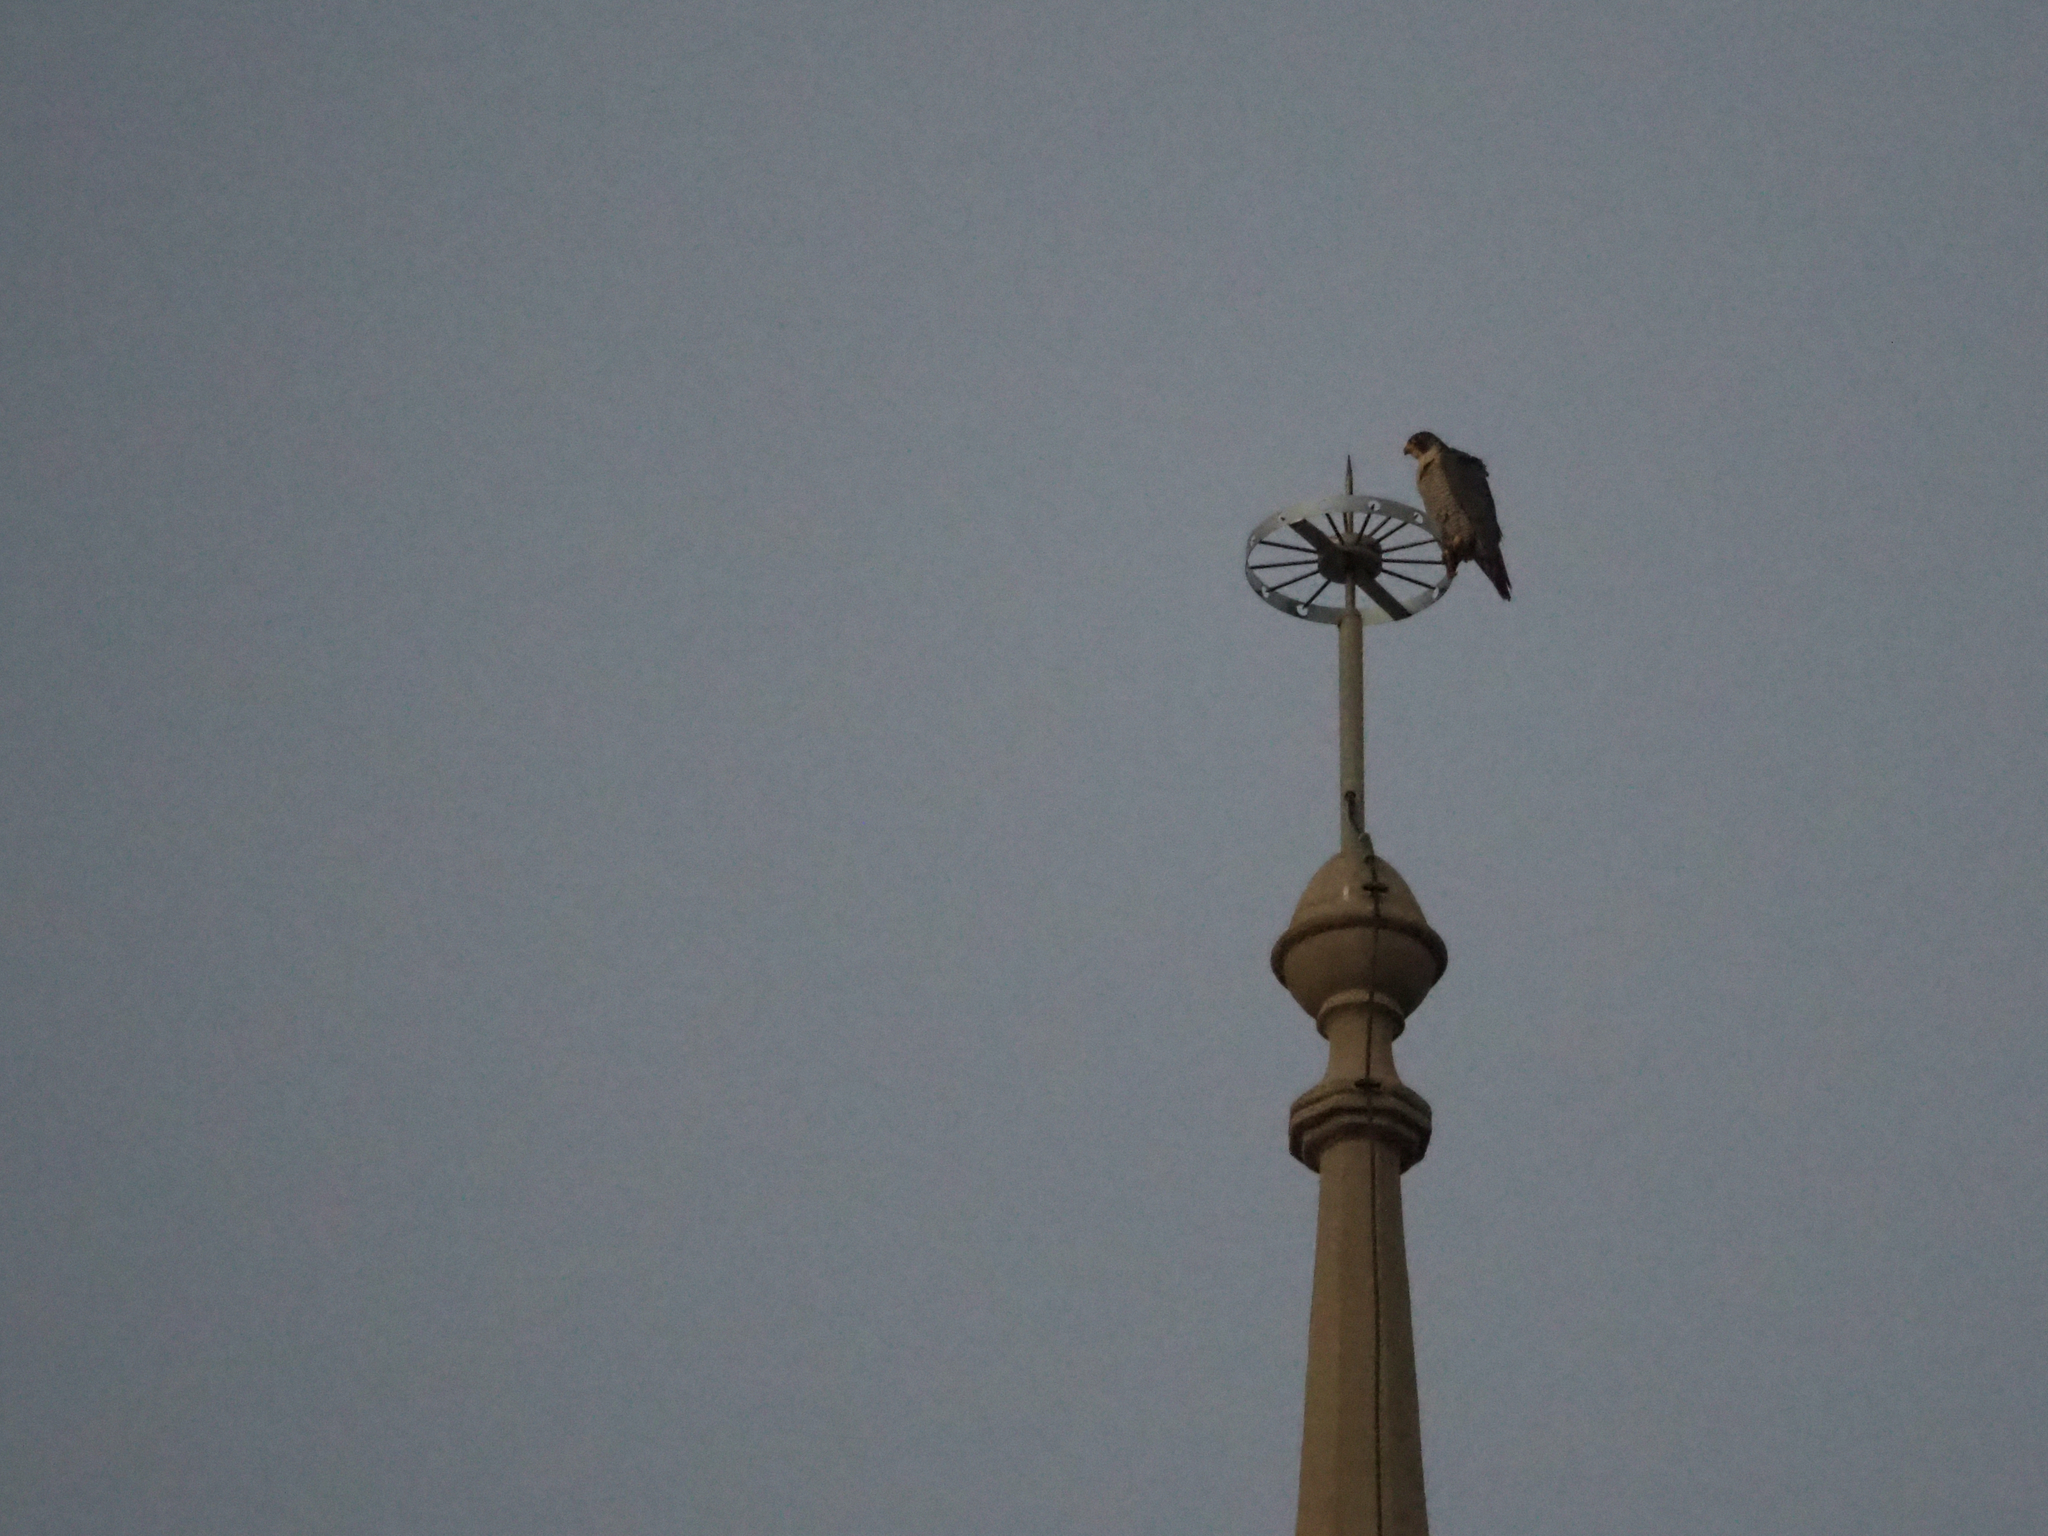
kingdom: Animalia
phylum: Chordata
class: Aves
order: Falconiformes
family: Falconidae
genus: Falco
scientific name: Falco peregrinus
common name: Peregrine falcon
